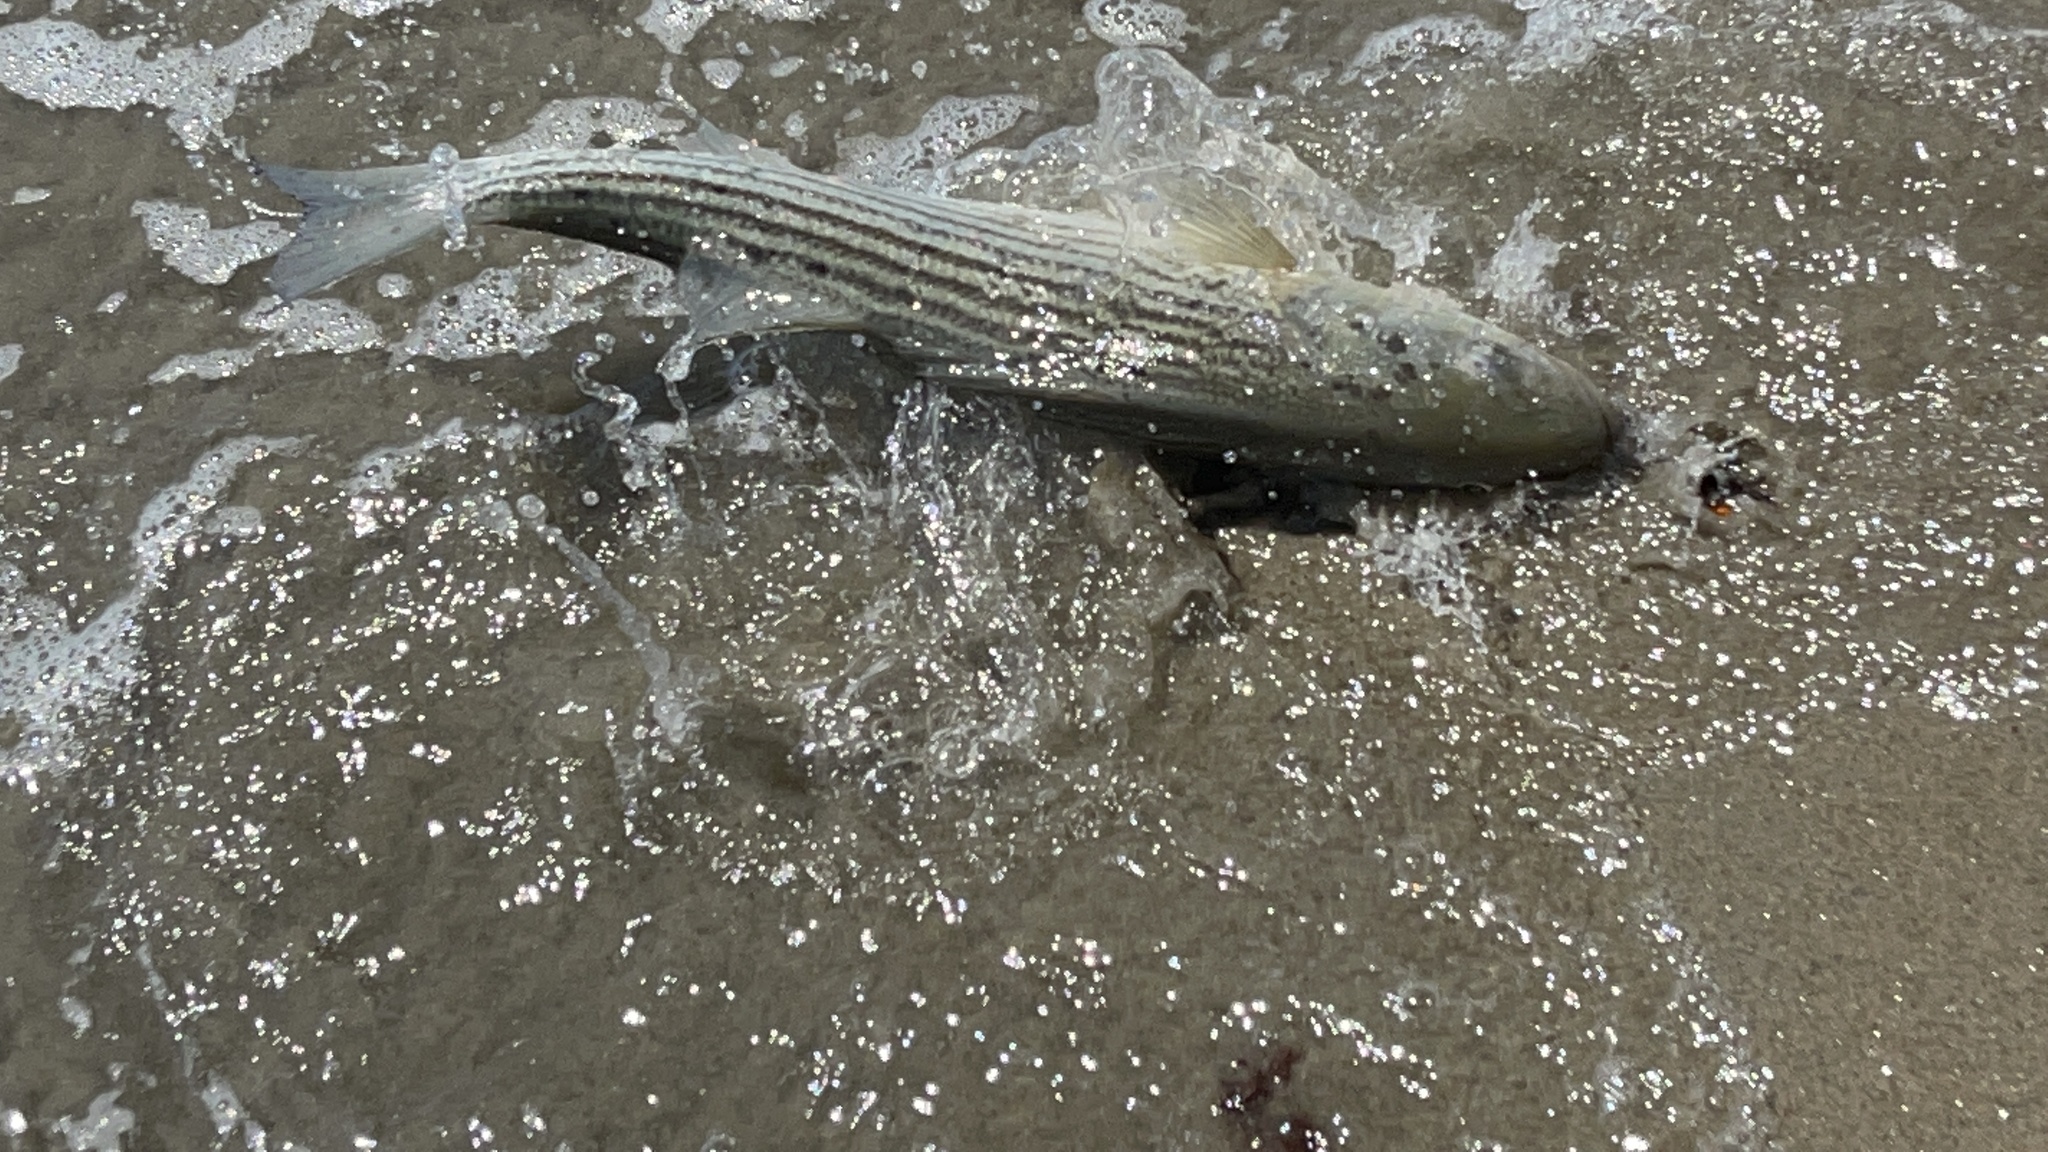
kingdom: Animalia
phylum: Chordata
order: Perciformes
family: Moronidae
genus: Morone
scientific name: Morone saxatilis
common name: Striped bass
